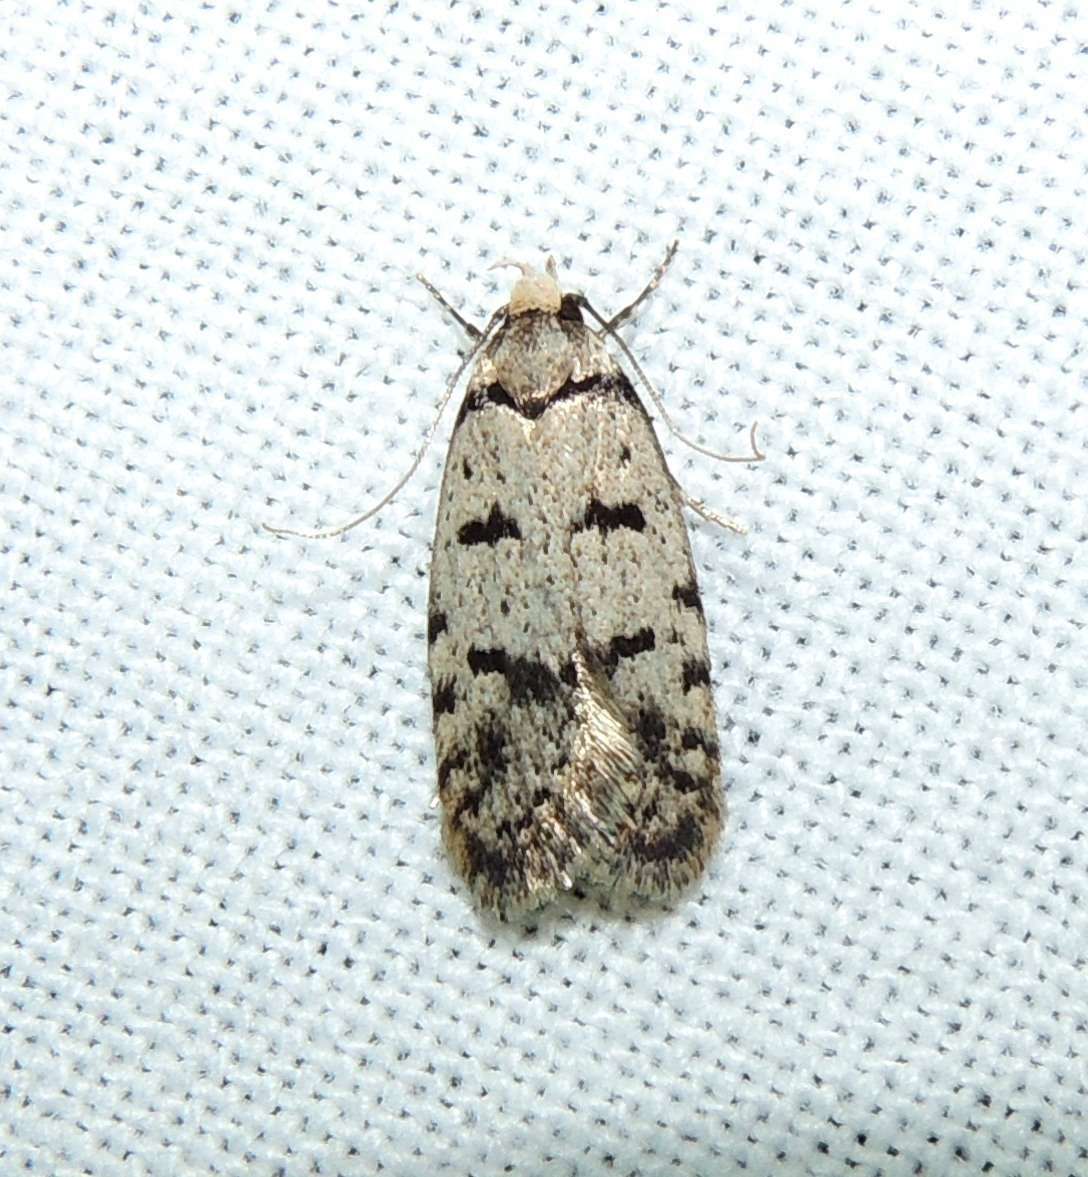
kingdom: Animalia
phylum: Arthropoda
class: Insecta
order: Lepidoptera
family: Oecophoridae
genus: Scatochresis
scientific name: Scatochresis
